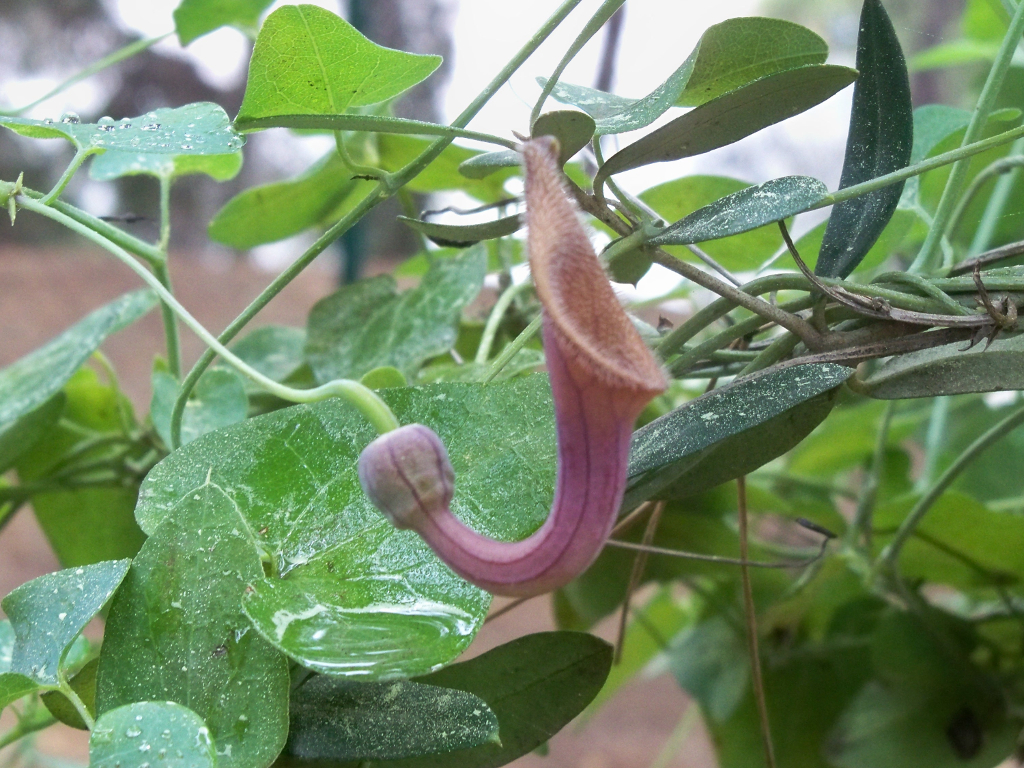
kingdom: Plantae
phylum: Tracheophyta
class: Magnoliopsida
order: Piperales
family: Aristolochiaceae
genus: Aristolochia
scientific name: Aristolochia baetica
